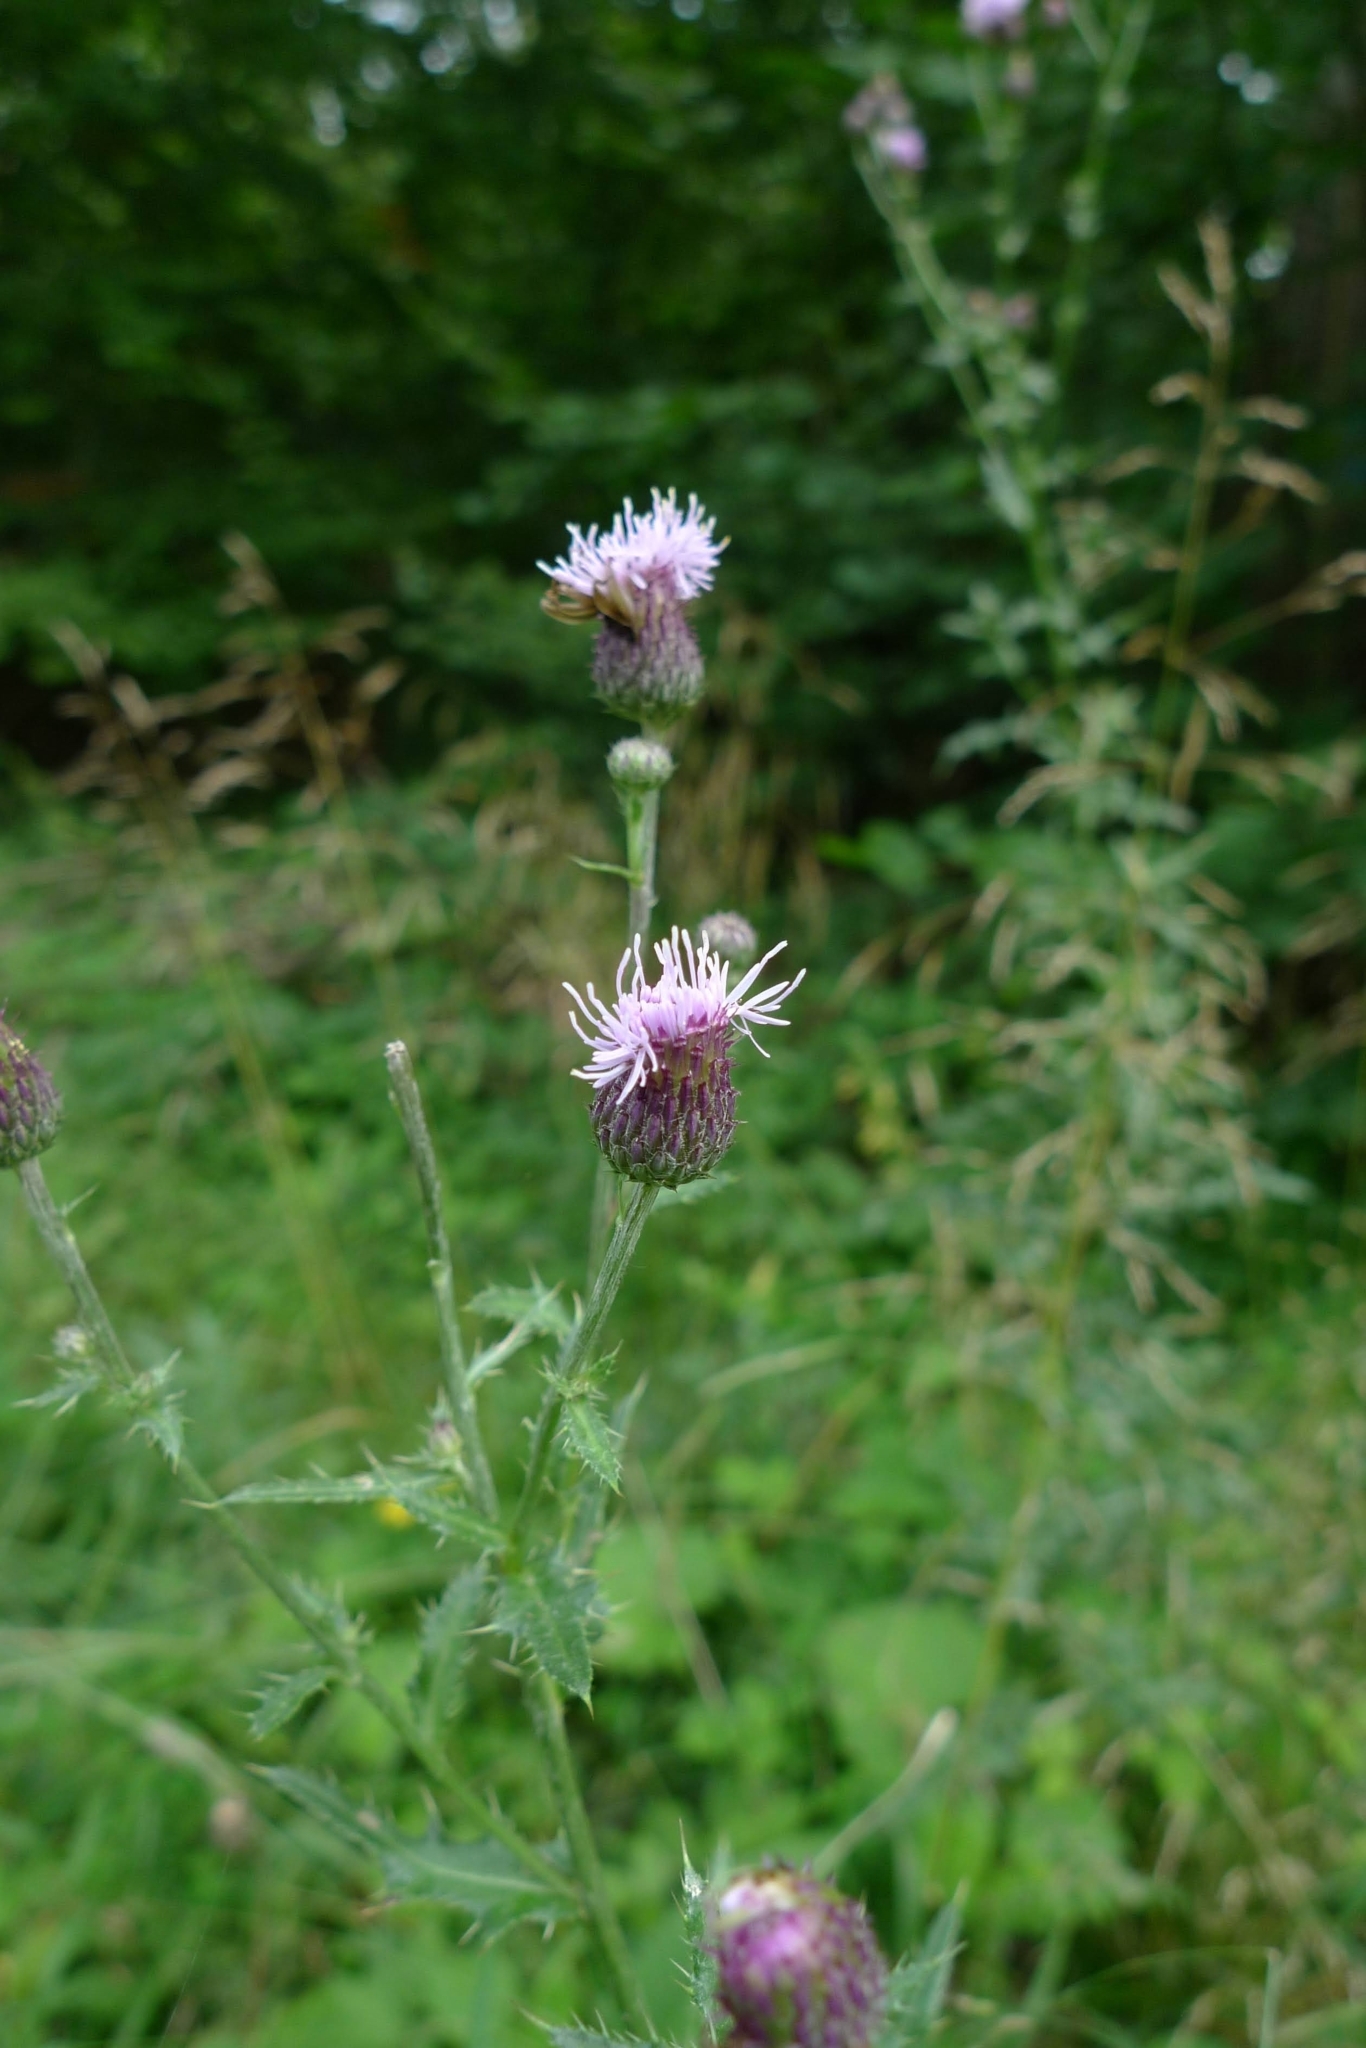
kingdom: Plantae
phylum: Tracheophyta
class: Magnoliopsida
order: Asterales
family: Asteraceae
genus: Cirsium
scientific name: Cirsium arvense
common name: Creeping thistle
